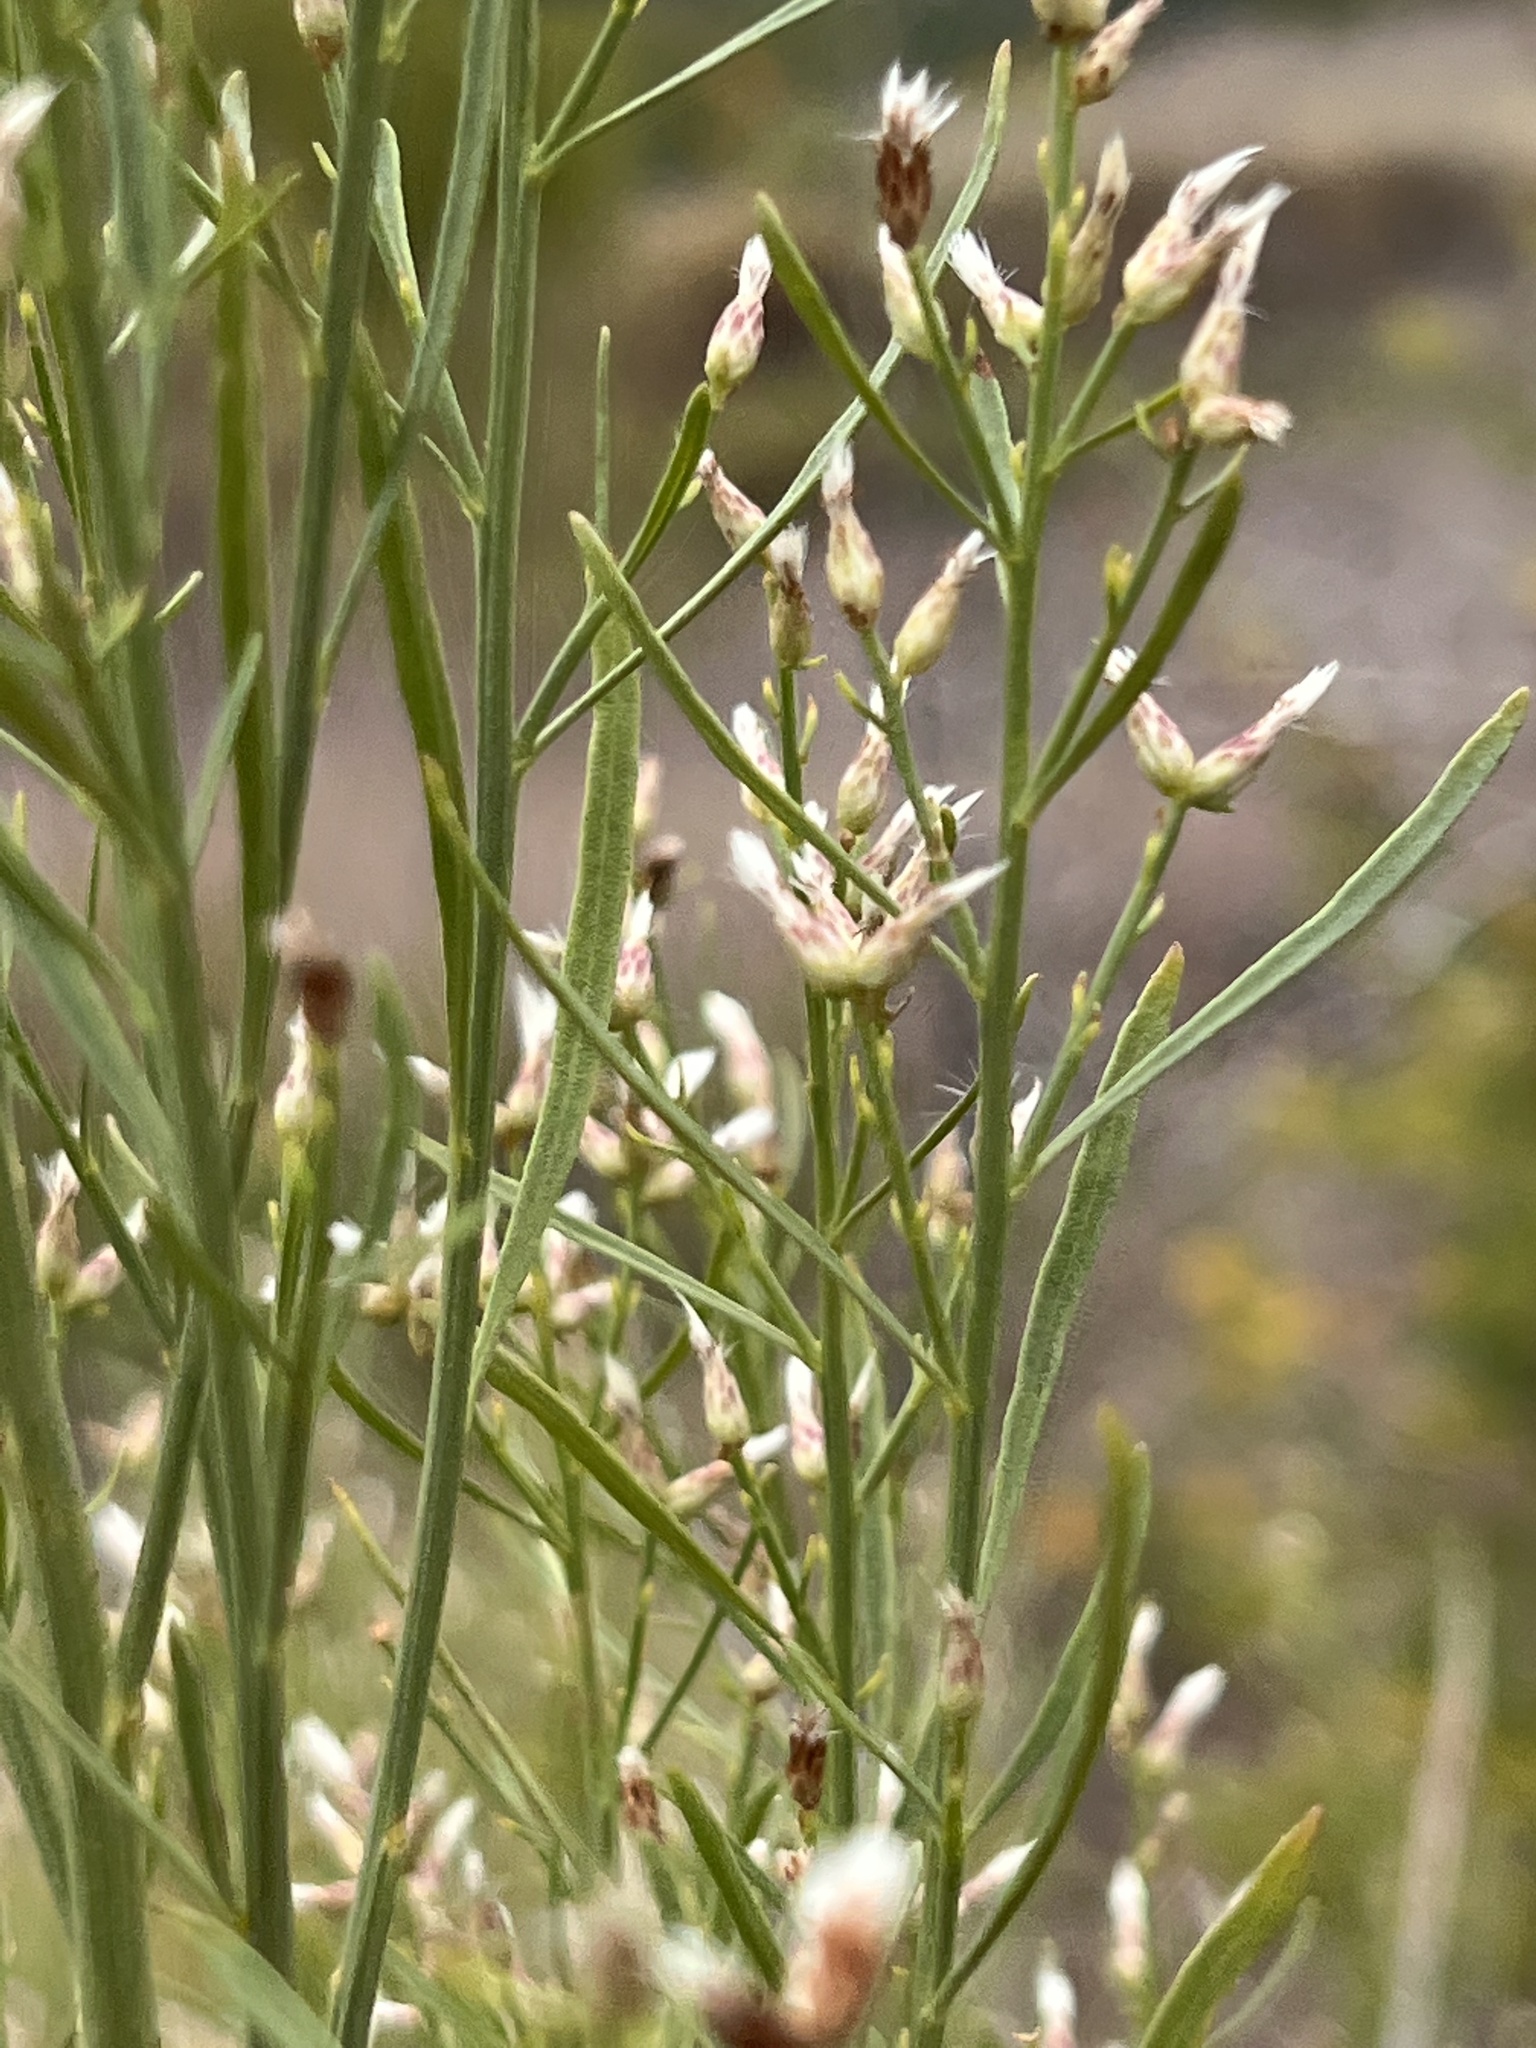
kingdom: Plantae
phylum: Tracheophyta
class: Magnoliopsida
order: Asterales
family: Asteraceae
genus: Baccharis
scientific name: Baccharis neglecta
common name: Roosevelt-weed
